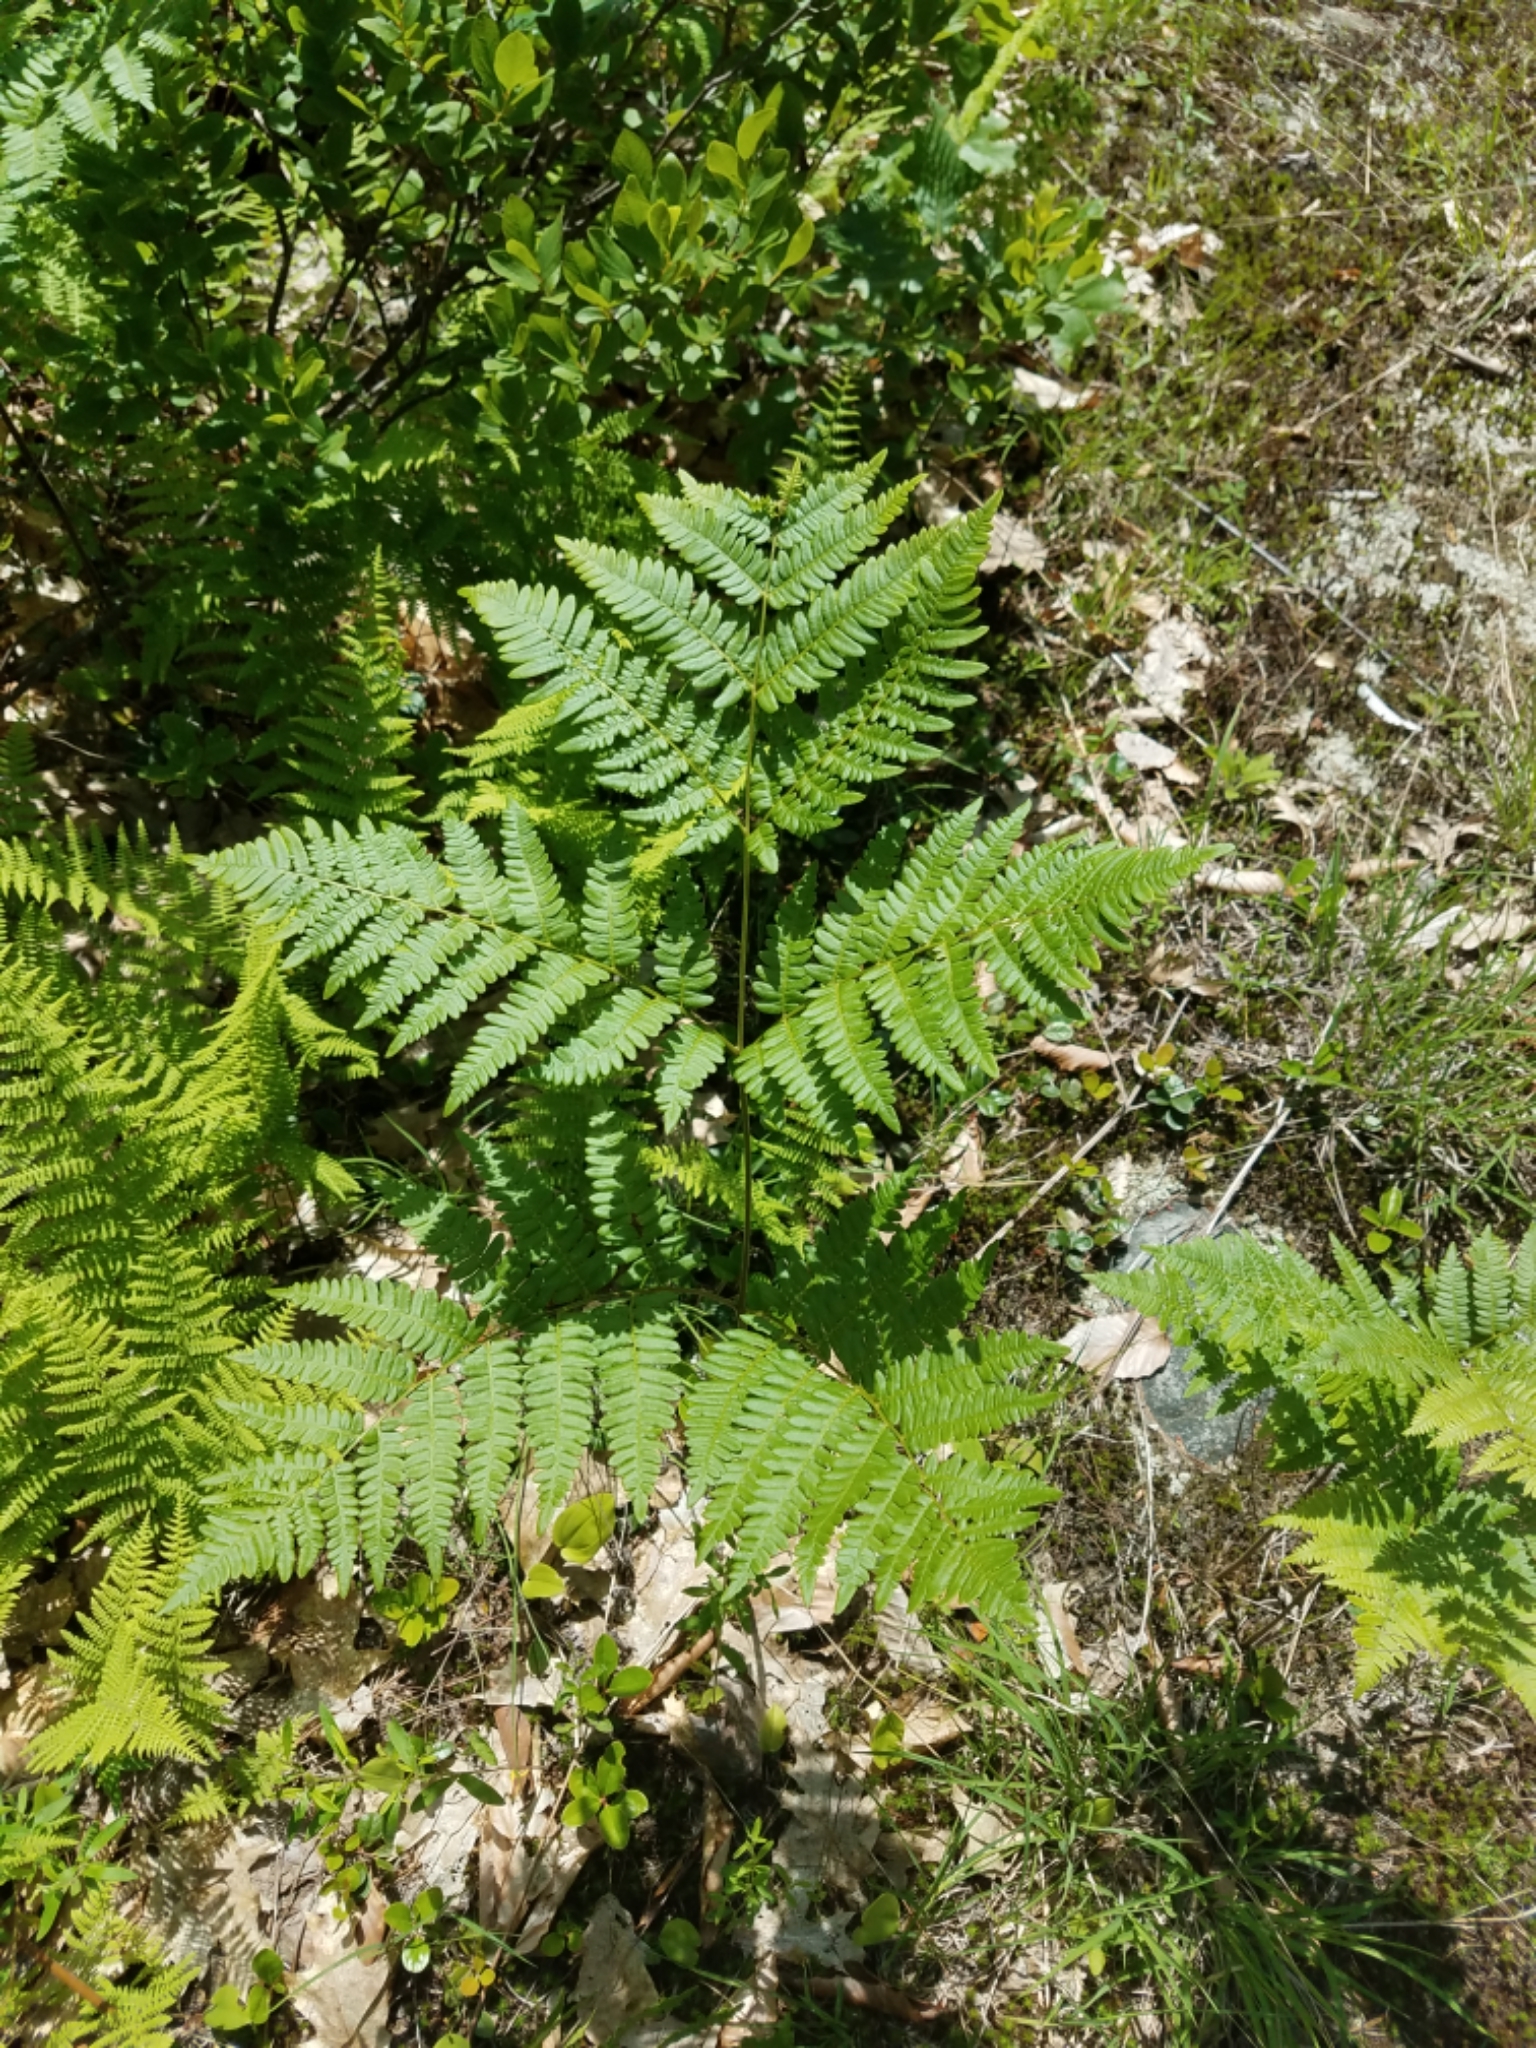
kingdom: Plantae
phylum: Tracheophyta
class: Polypodiopsida
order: Polypodiales
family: Dennstaedtiaceae
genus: Pteridium
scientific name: Pteridium aquilinum
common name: Bracken
